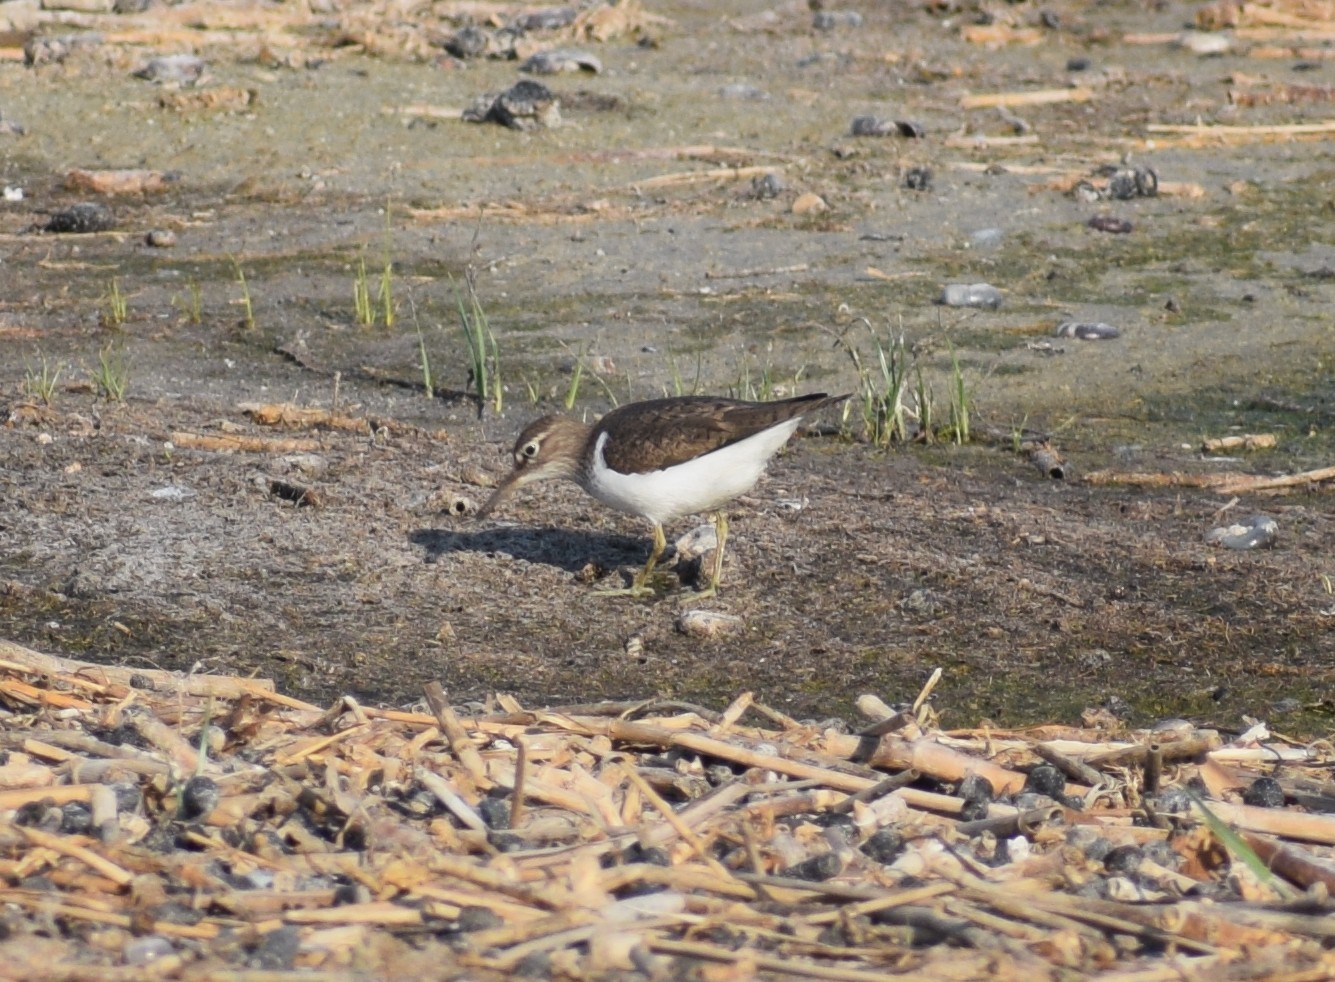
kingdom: Animalia
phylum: Chordata
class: Aves
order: Charadriiformes
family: Scolopacidae
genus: Actitis
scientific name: Actitis hypoleucos
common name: Common sandpiper
